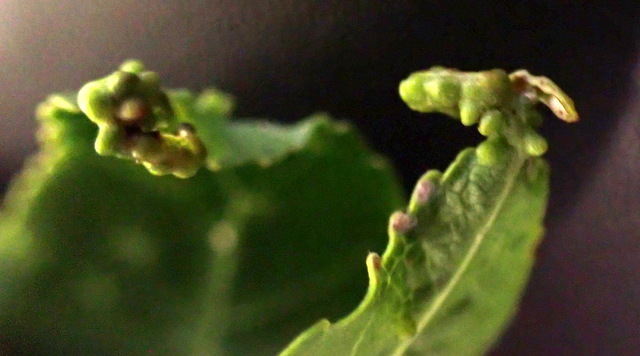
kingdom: Animalia
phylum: Arthropoda
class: Insecta
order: Hemiptera
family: Diaspididae
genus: Diaspidiotus
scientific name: Diaspidiotus liquidambaris
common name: Sweet gum scale
